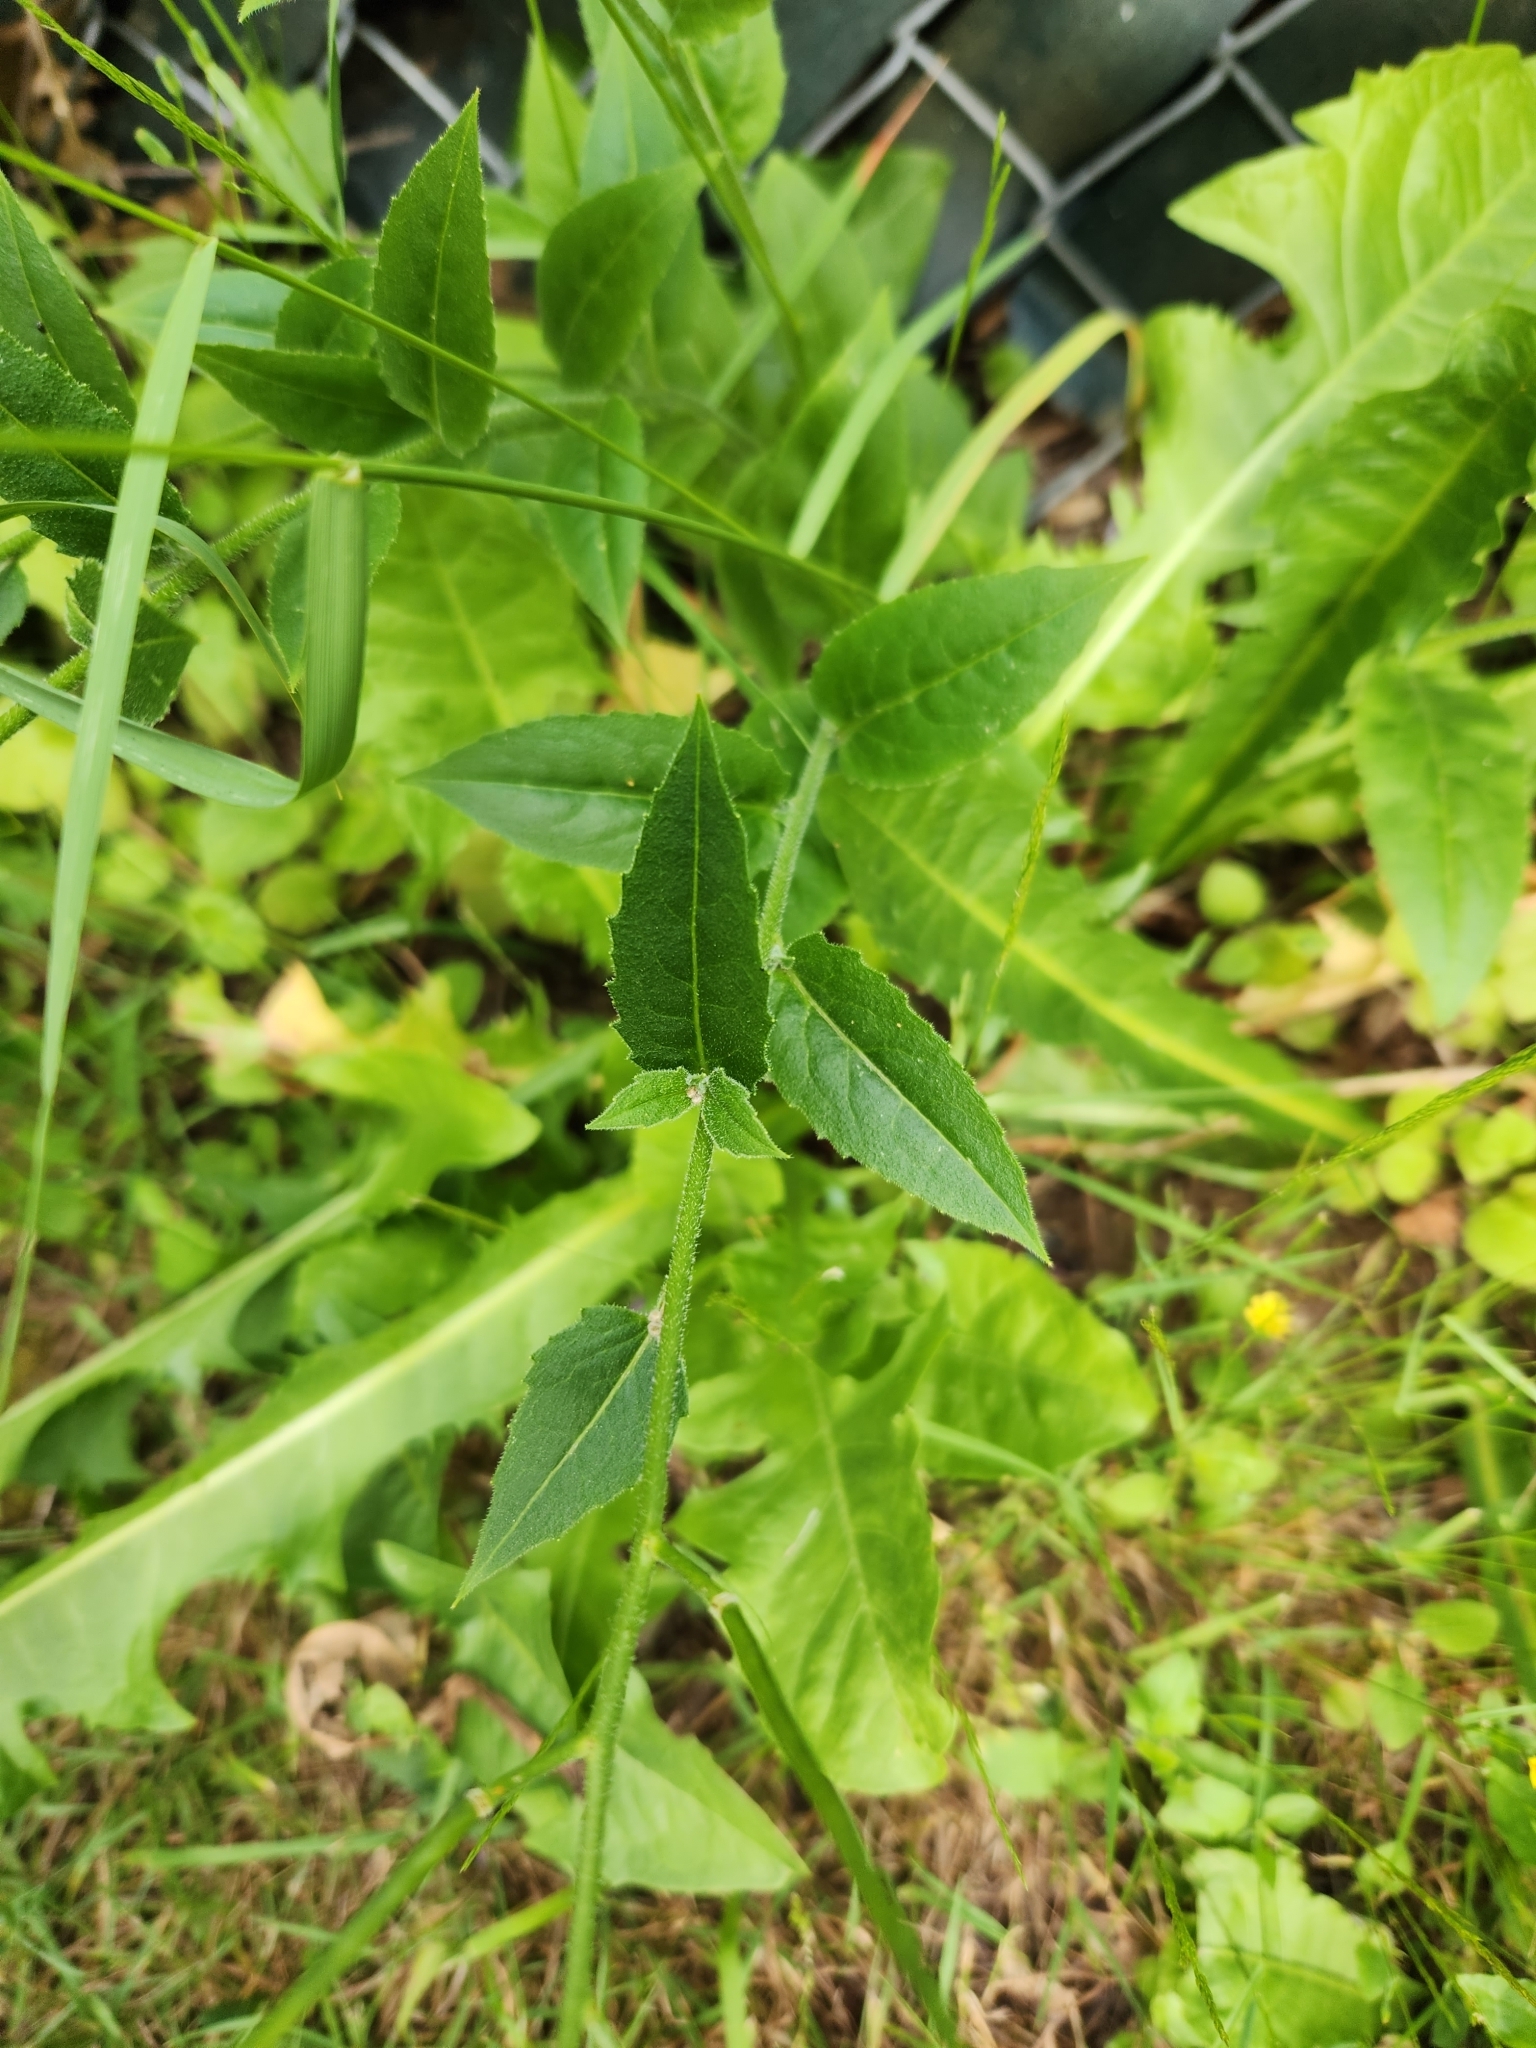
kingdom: Plantae
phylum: Tracheophyta
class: Magnoliopsida
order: Brassicales
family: Brassicaceae
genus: Hesperis
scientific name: Hesperis matronalis
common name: Dame's-violet
